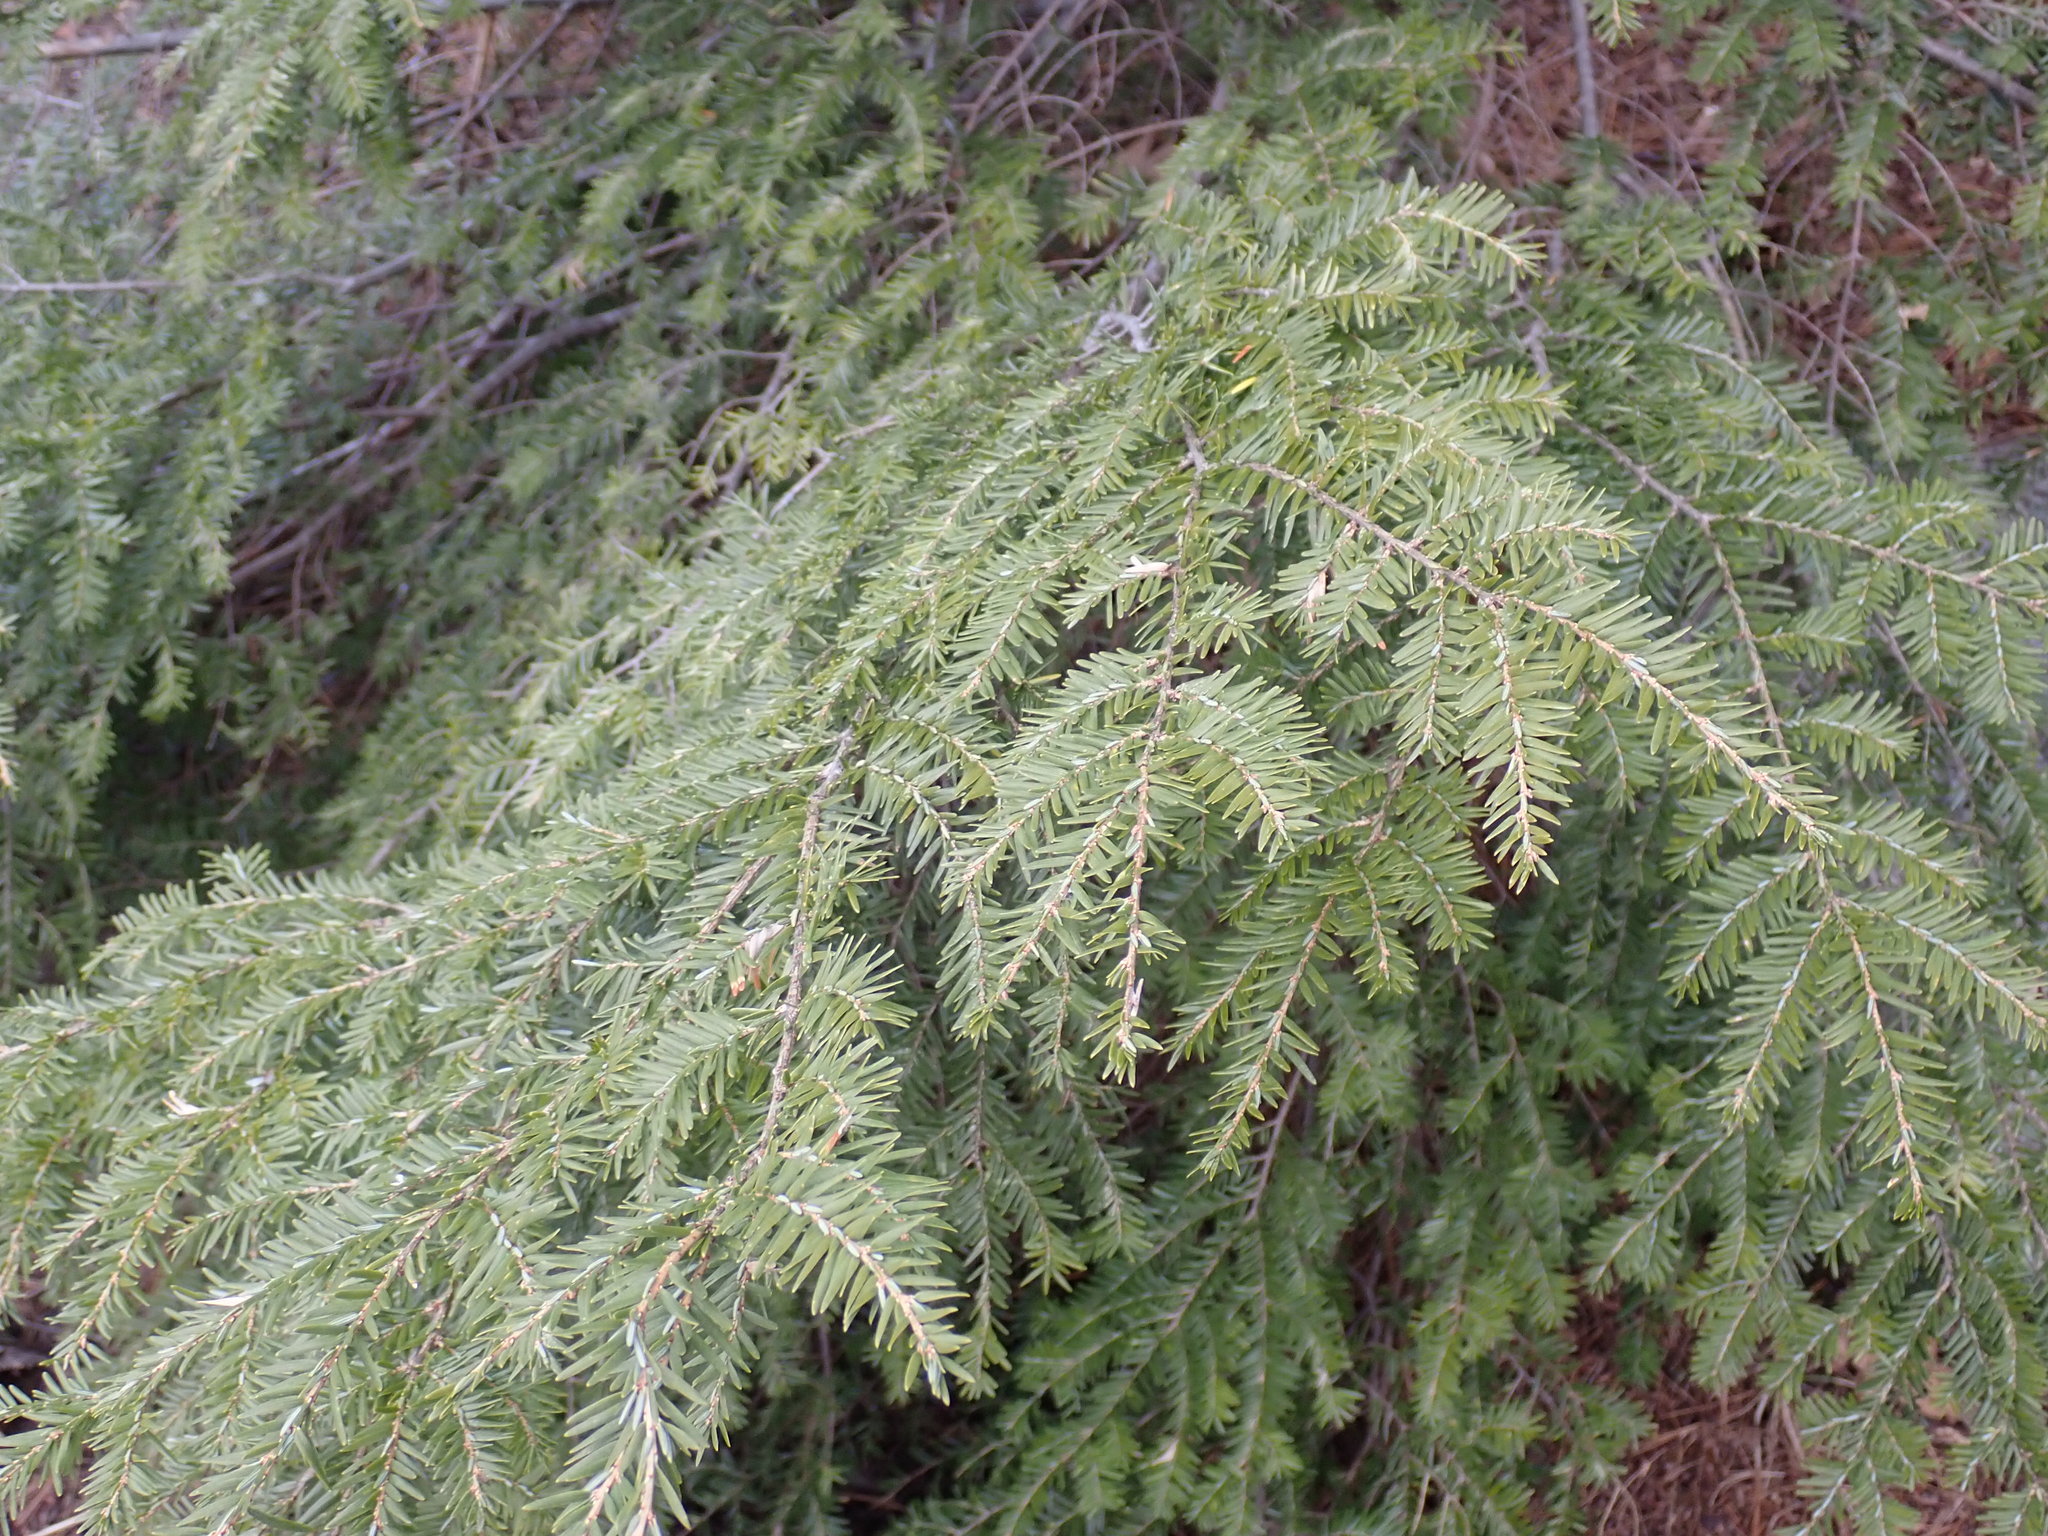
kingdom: Plantae
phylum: Tracheophyta
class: Pinopsida
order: Pinales
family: Pinaceae
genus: Tsuga
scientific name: Tsuga canadensis
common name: Eastern hemlock
